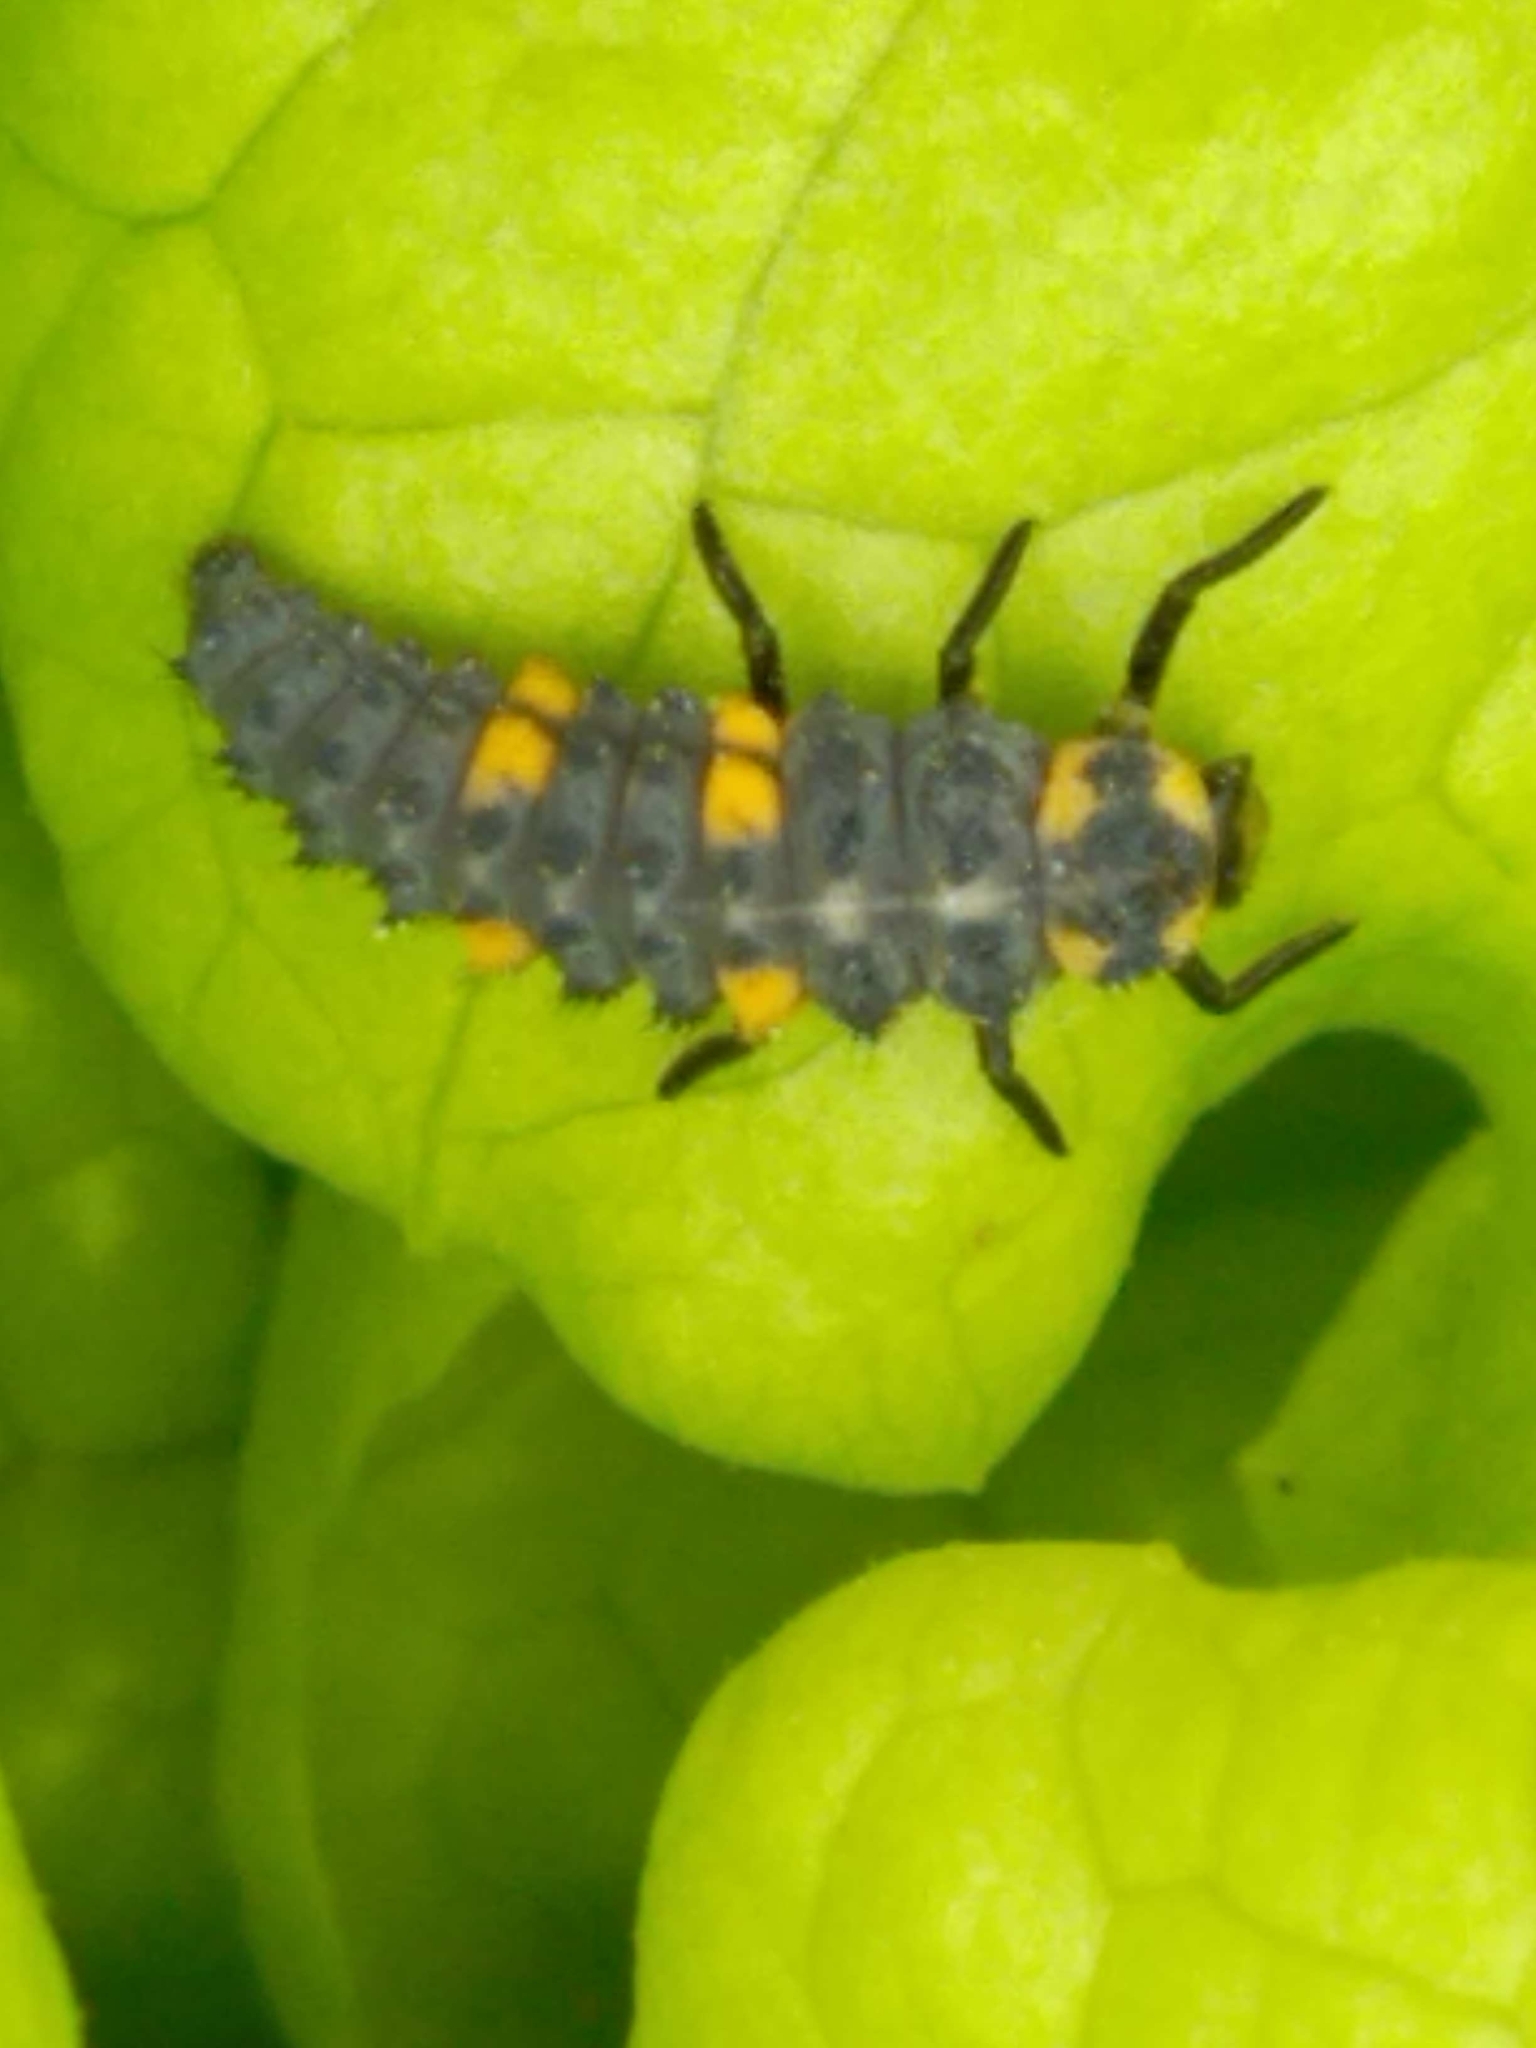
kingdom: Animalia
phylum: Arthropoda
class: Insecta
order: Coleoptera
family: Coccinellidae
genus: Coccinella
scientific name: Coccinella septempunctata
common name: Sevenspotted lady beetle
